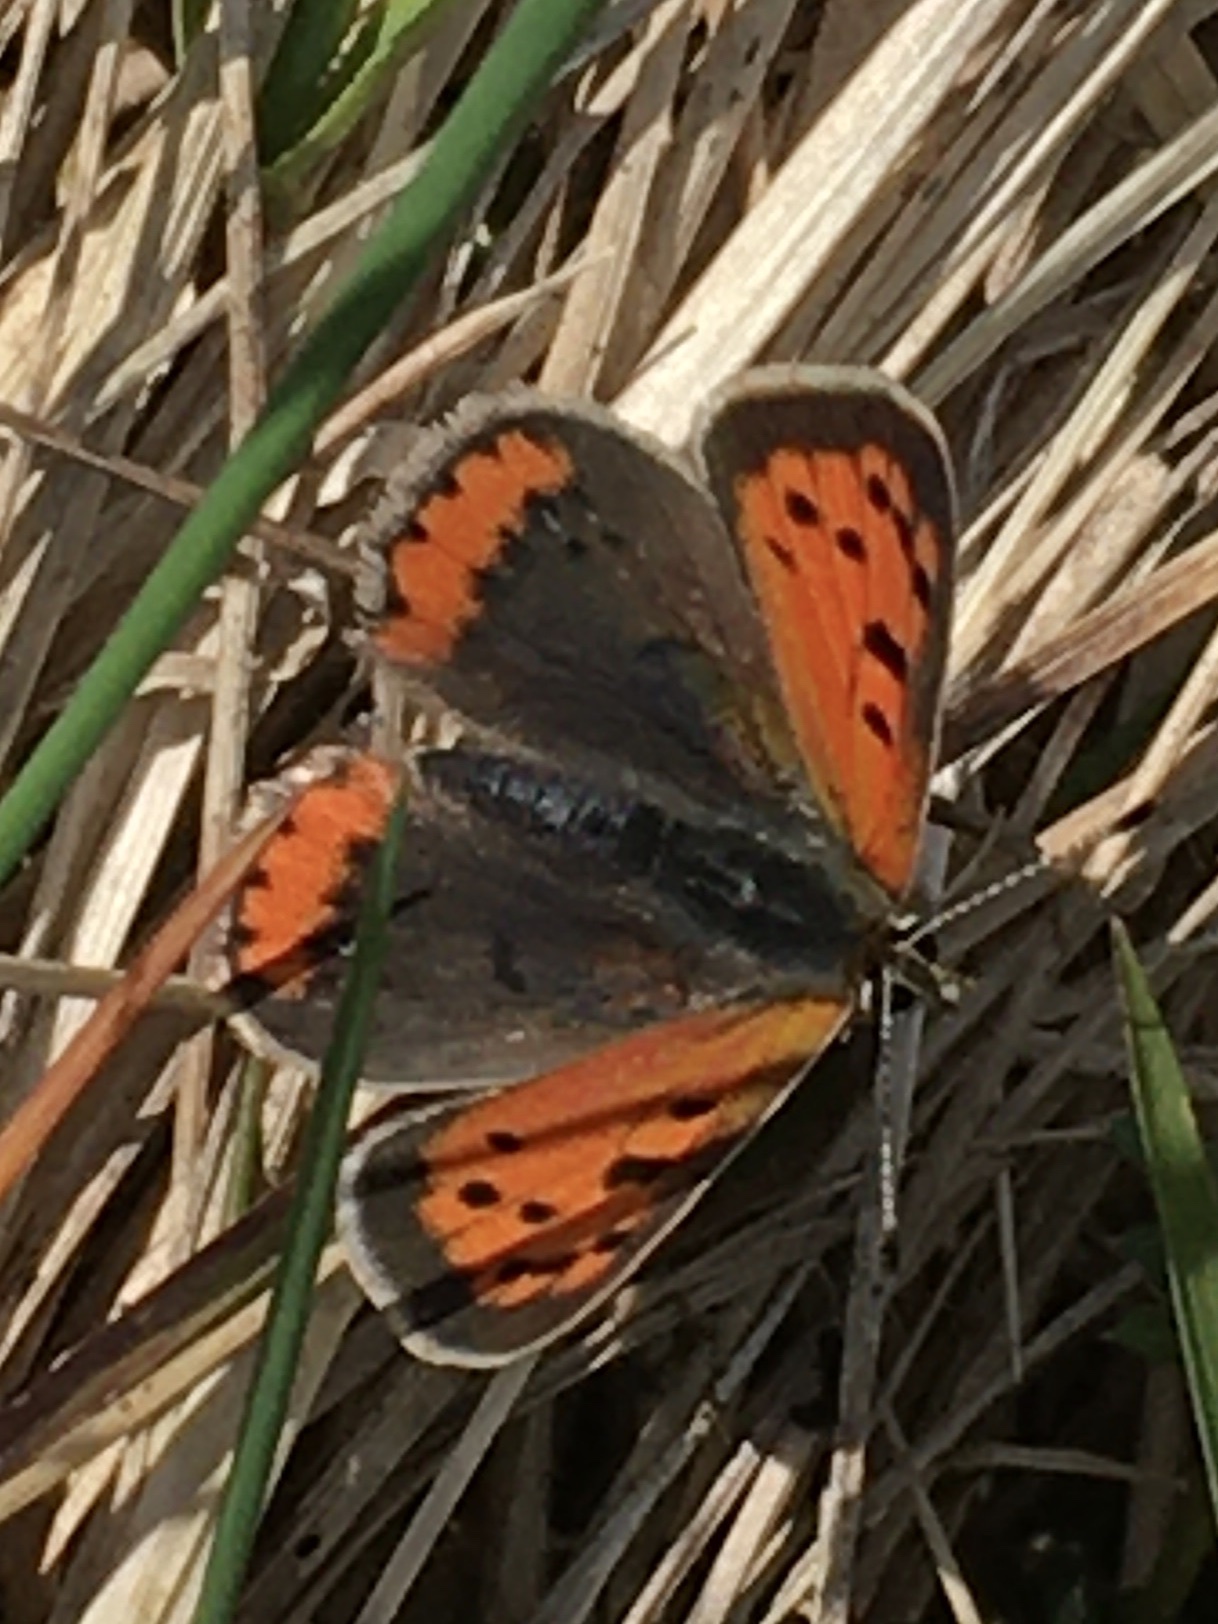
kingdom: Animalia
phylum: Arthropoda
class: Insecta
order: Lepidoptera
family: Lycaenidae
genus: Lycaena
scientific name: Lycaena phlaeas
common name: Small copper
